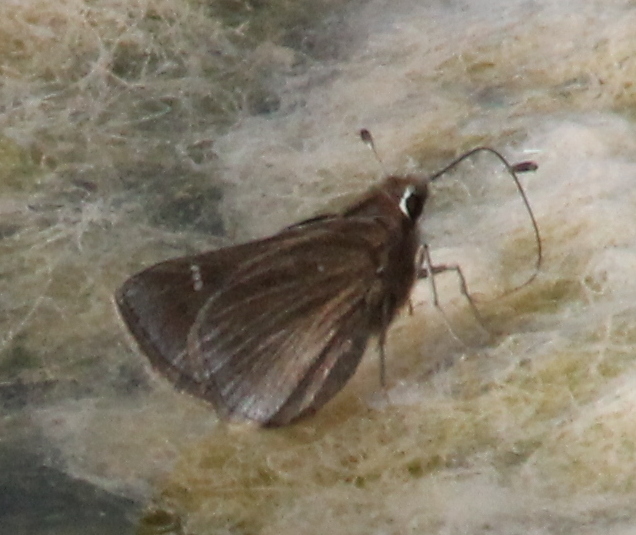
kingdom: Animalia
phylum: Arthropoda
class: Insecta
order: Lepidoptera
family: Hesperiidae
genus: Atrytonopsis
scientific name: Atrytonopsis hianna
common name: Dusted skipper
